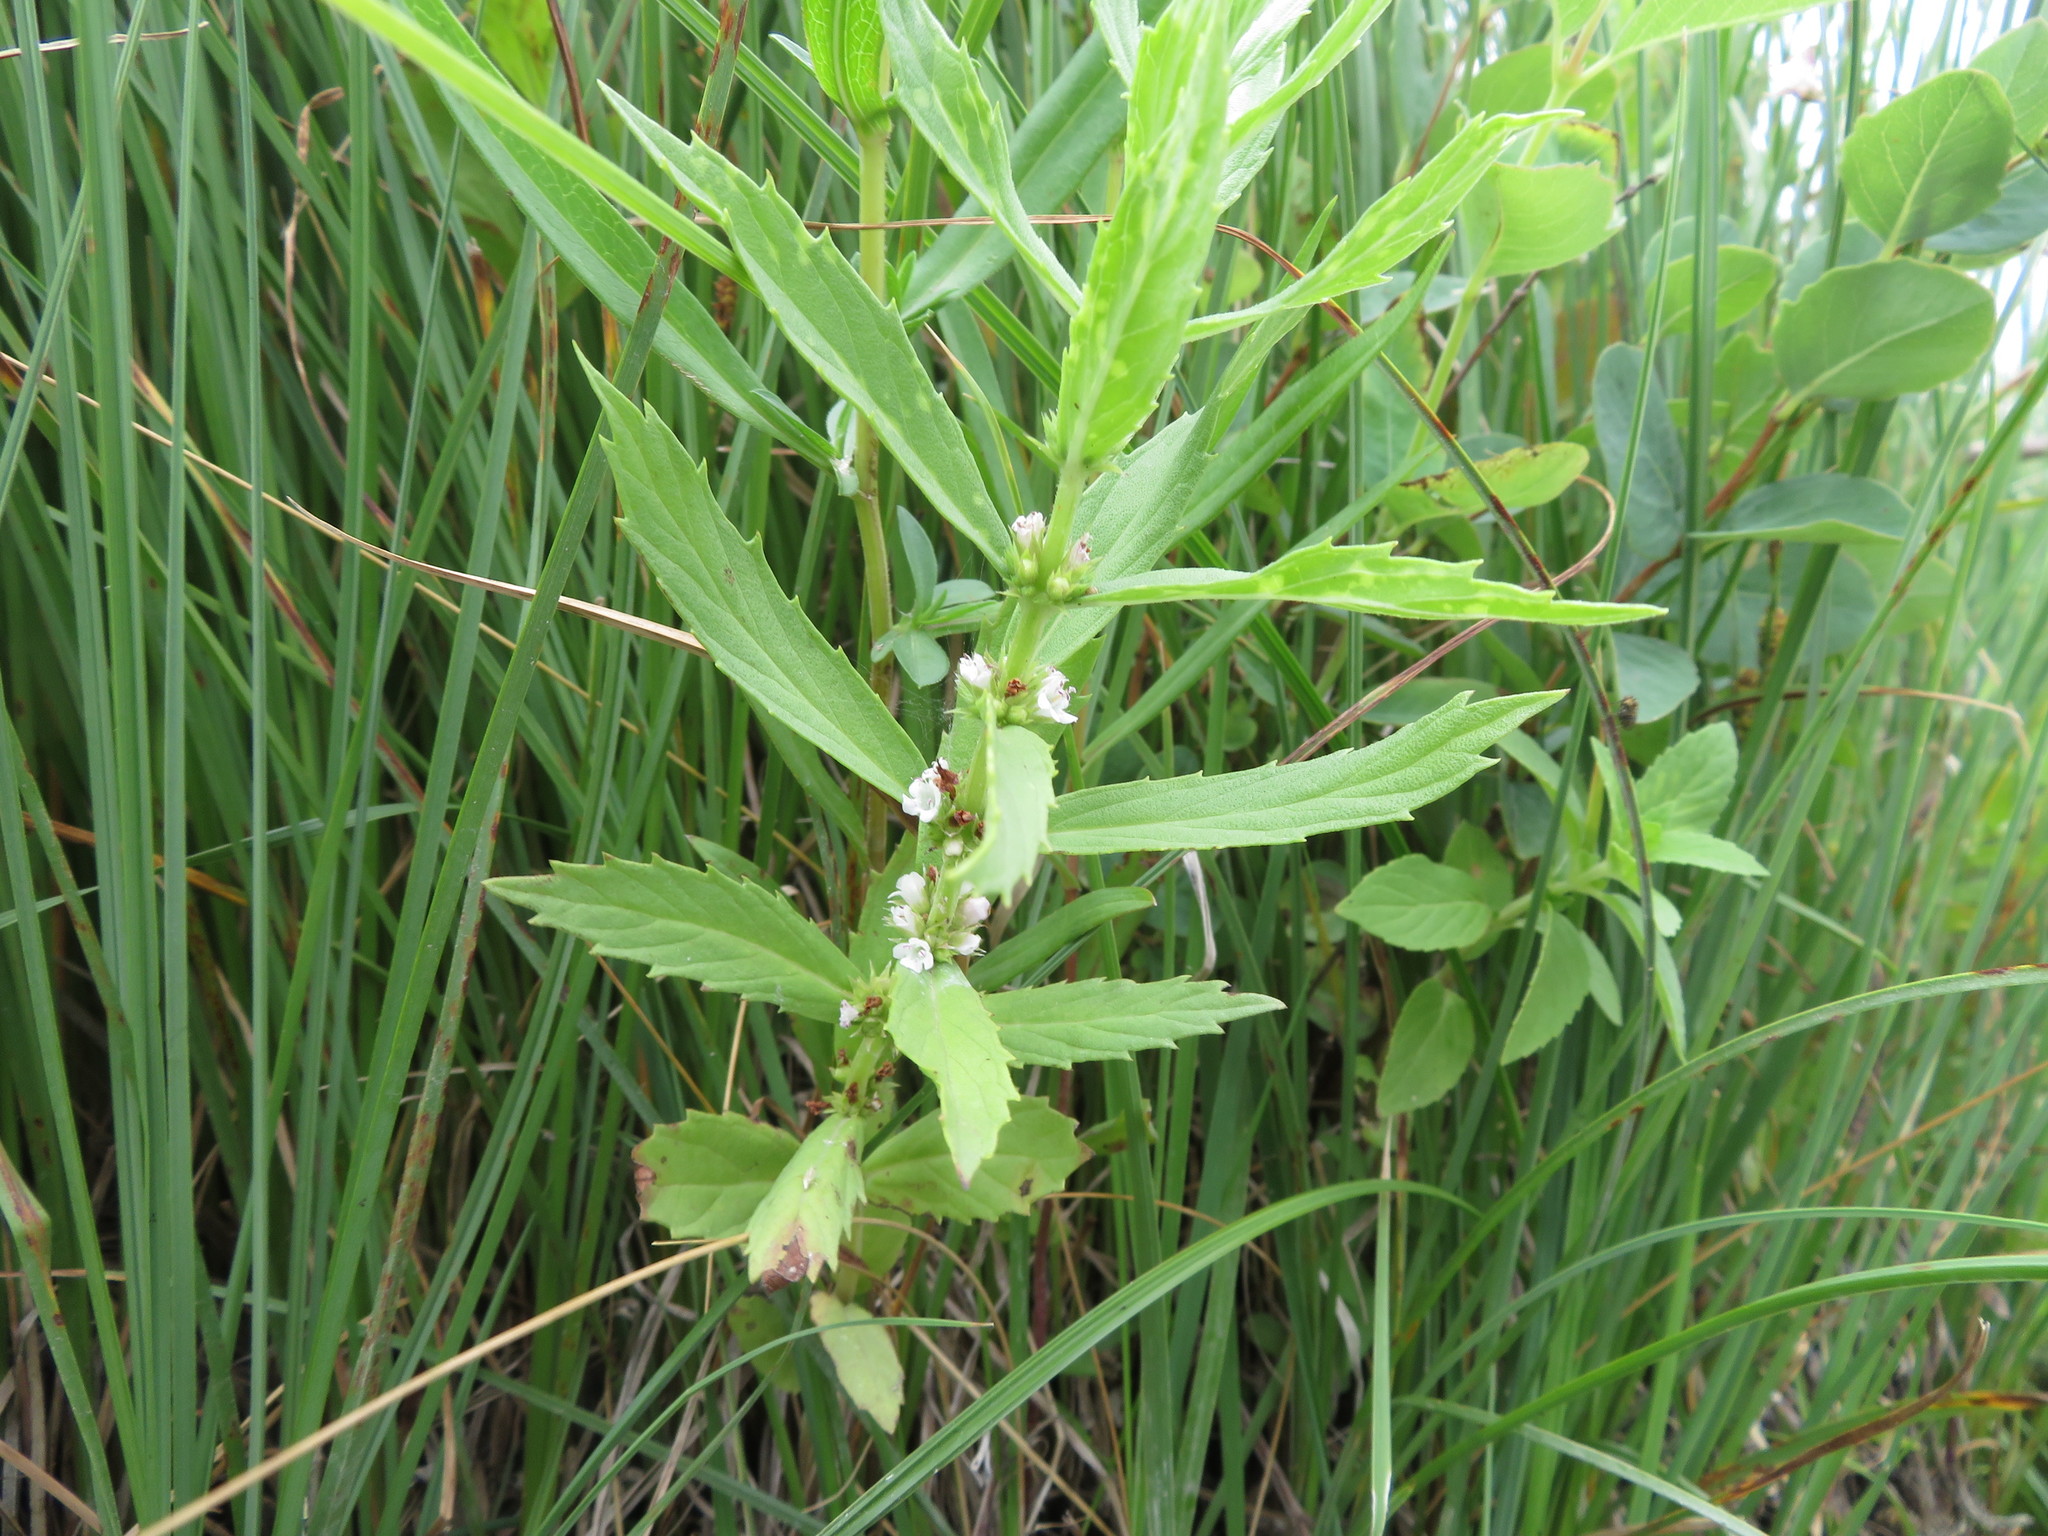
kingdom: Plantae
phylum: Tracheophyta
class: Magnoliopsida
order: Lamiales
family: Lamiaceae
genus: Lycopus
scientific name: Lycopus asper
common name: Rough water-horehound
